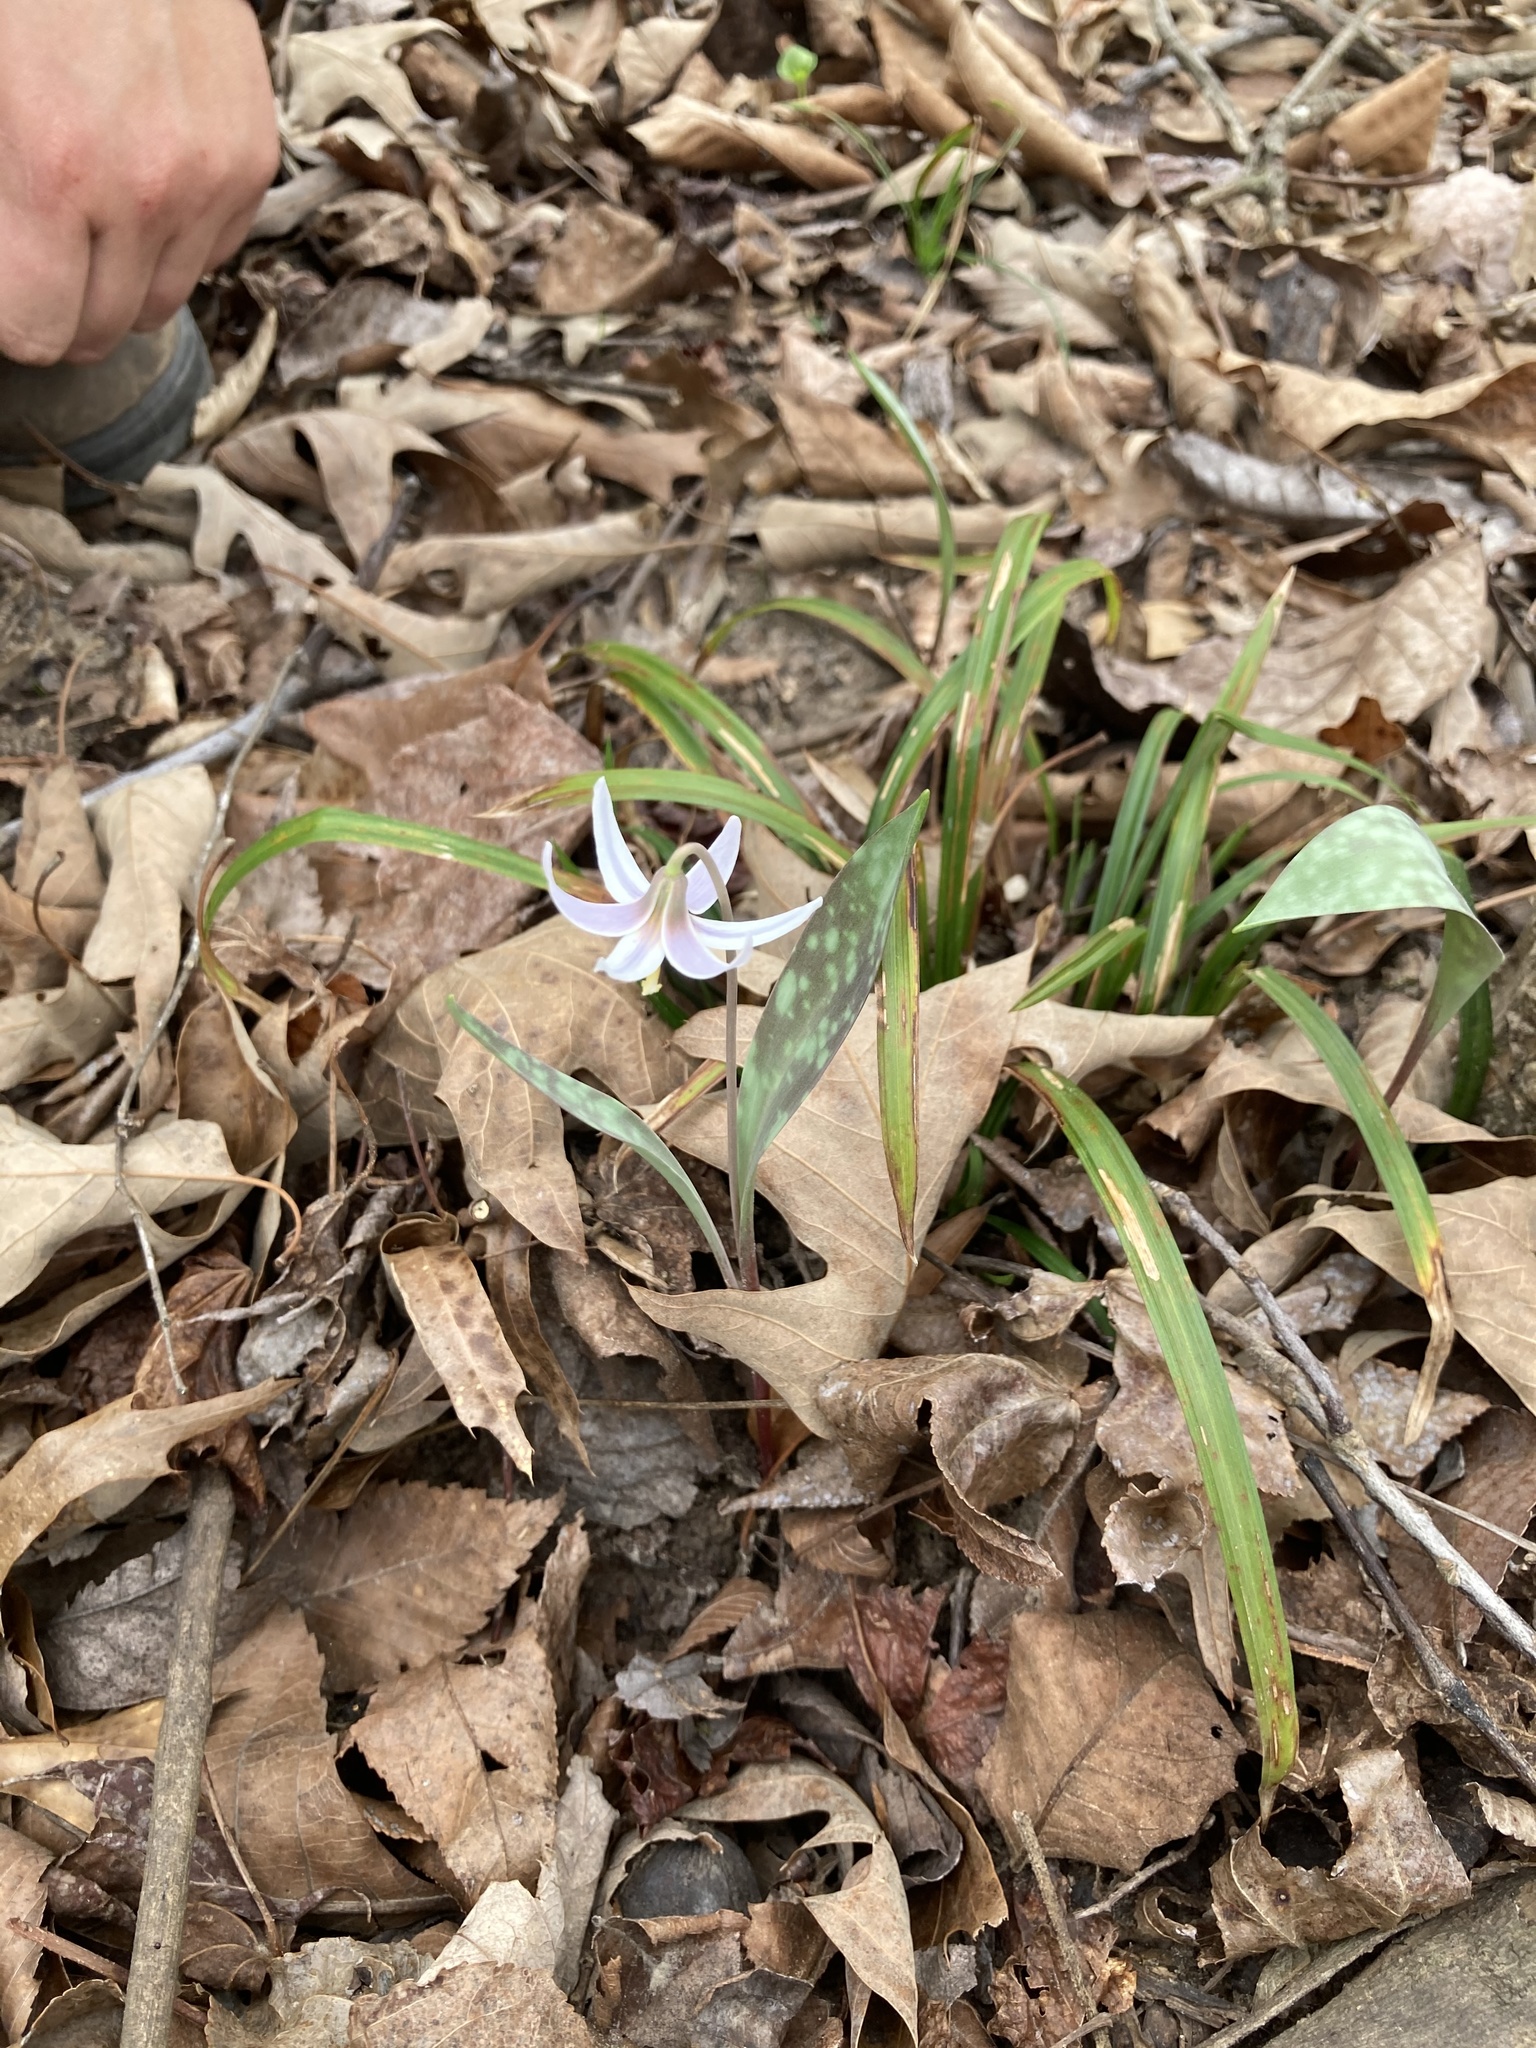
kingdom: Plantae
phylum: Tracheophyta
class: Liliopsida
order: Liliales
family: Liliaceae
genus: Erythronium
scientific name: Erythronium albidum
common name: White trout-lily
